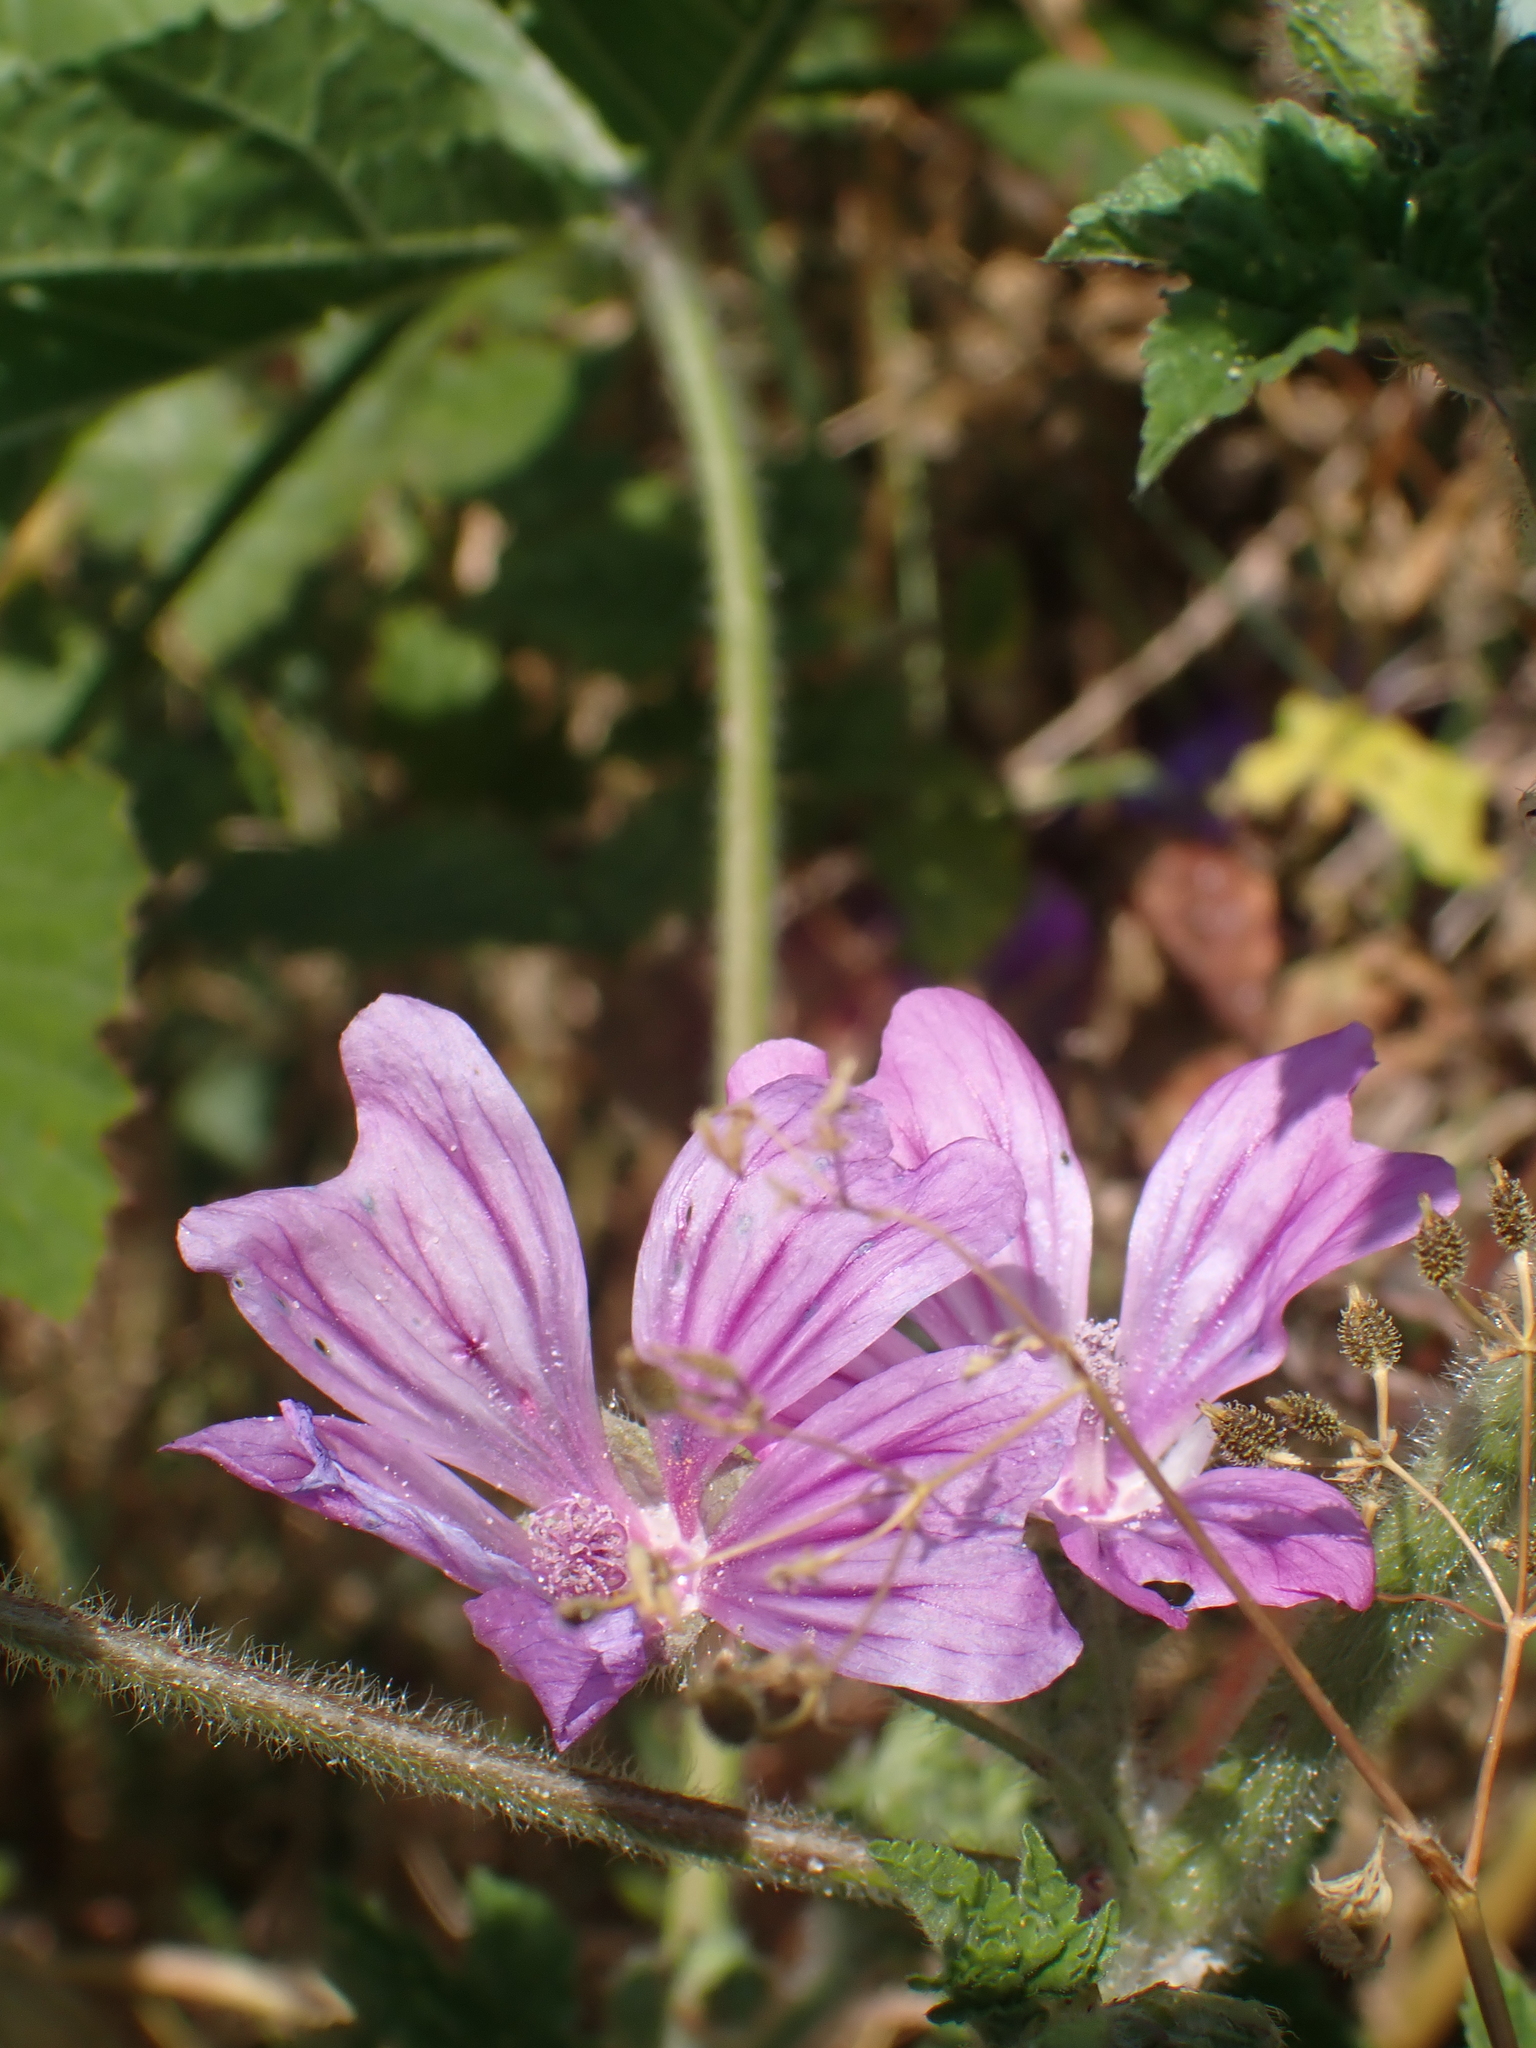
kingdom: Plantae
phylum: Tracheophyta
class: Magnoliopsida
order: Malvales
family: Malvaceae
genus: Malva
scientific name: Malva sylvestris
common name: Common mallow
